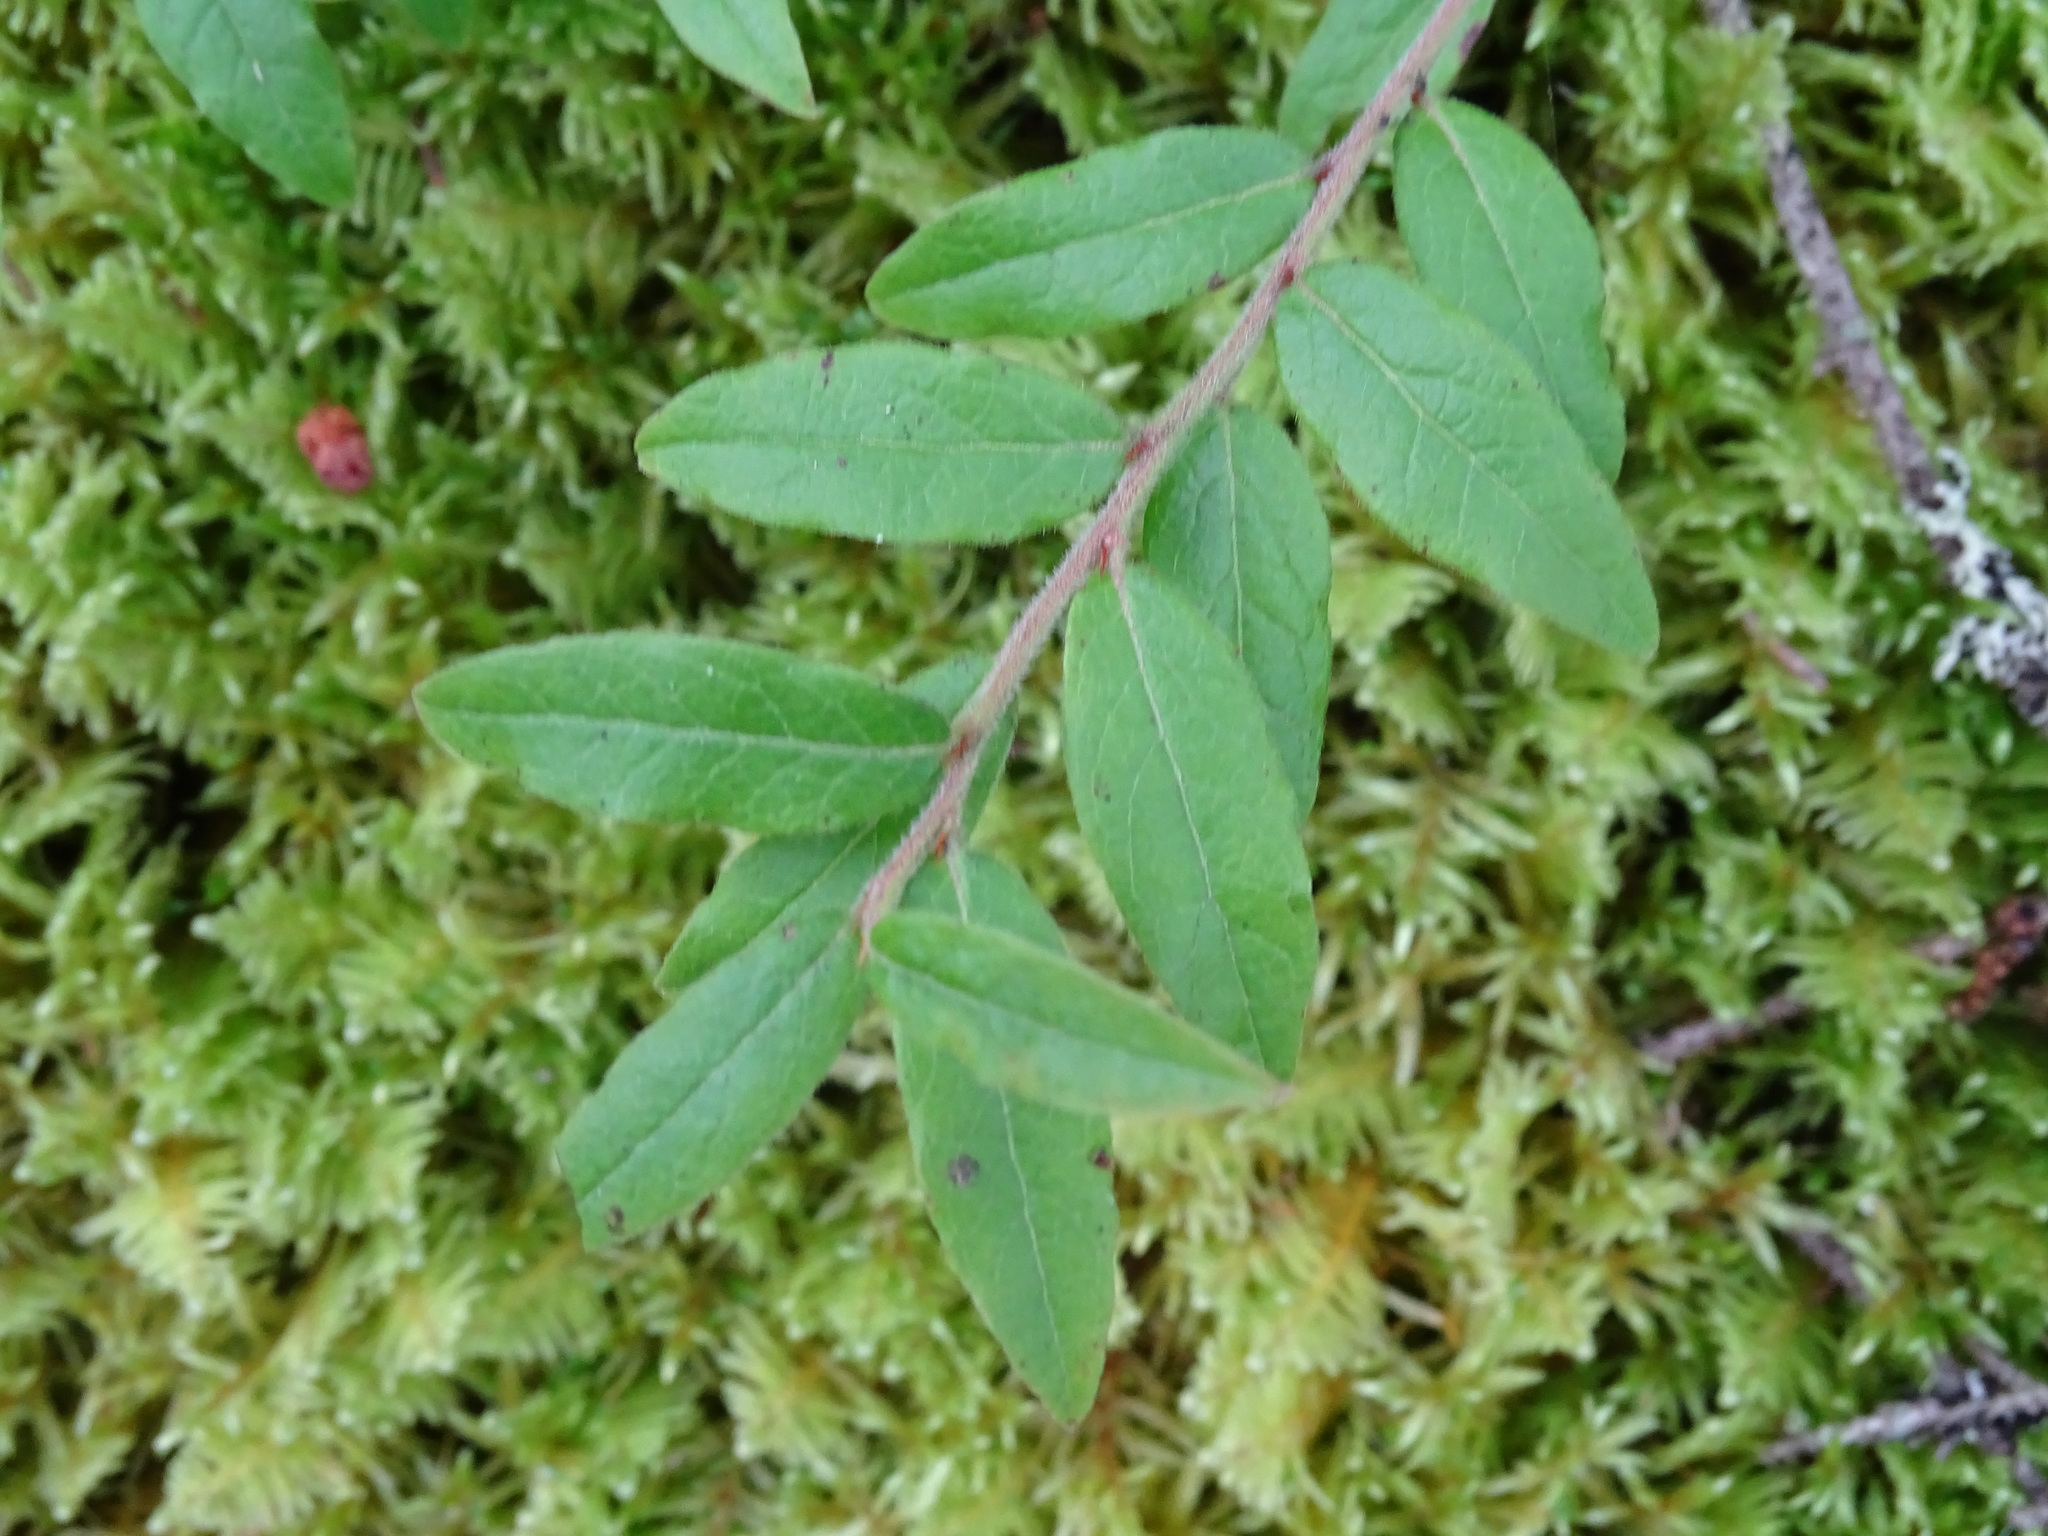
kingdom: Plantae
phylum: Tracheophyta
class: Magnoliopsida
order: Ericales
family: Ericaceae
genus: Vaccinium
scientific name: Vaccinium myrtilloides
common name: Canada blueberry
